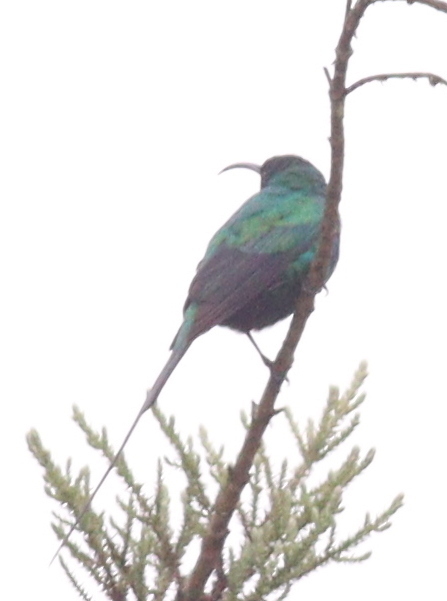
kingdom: Animalia
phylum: Chordata
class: Aves
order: Passeriformes
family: Nectariniidae
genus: Nectarinia
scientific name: Nectarinia famosa
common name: Malachite sunbird
